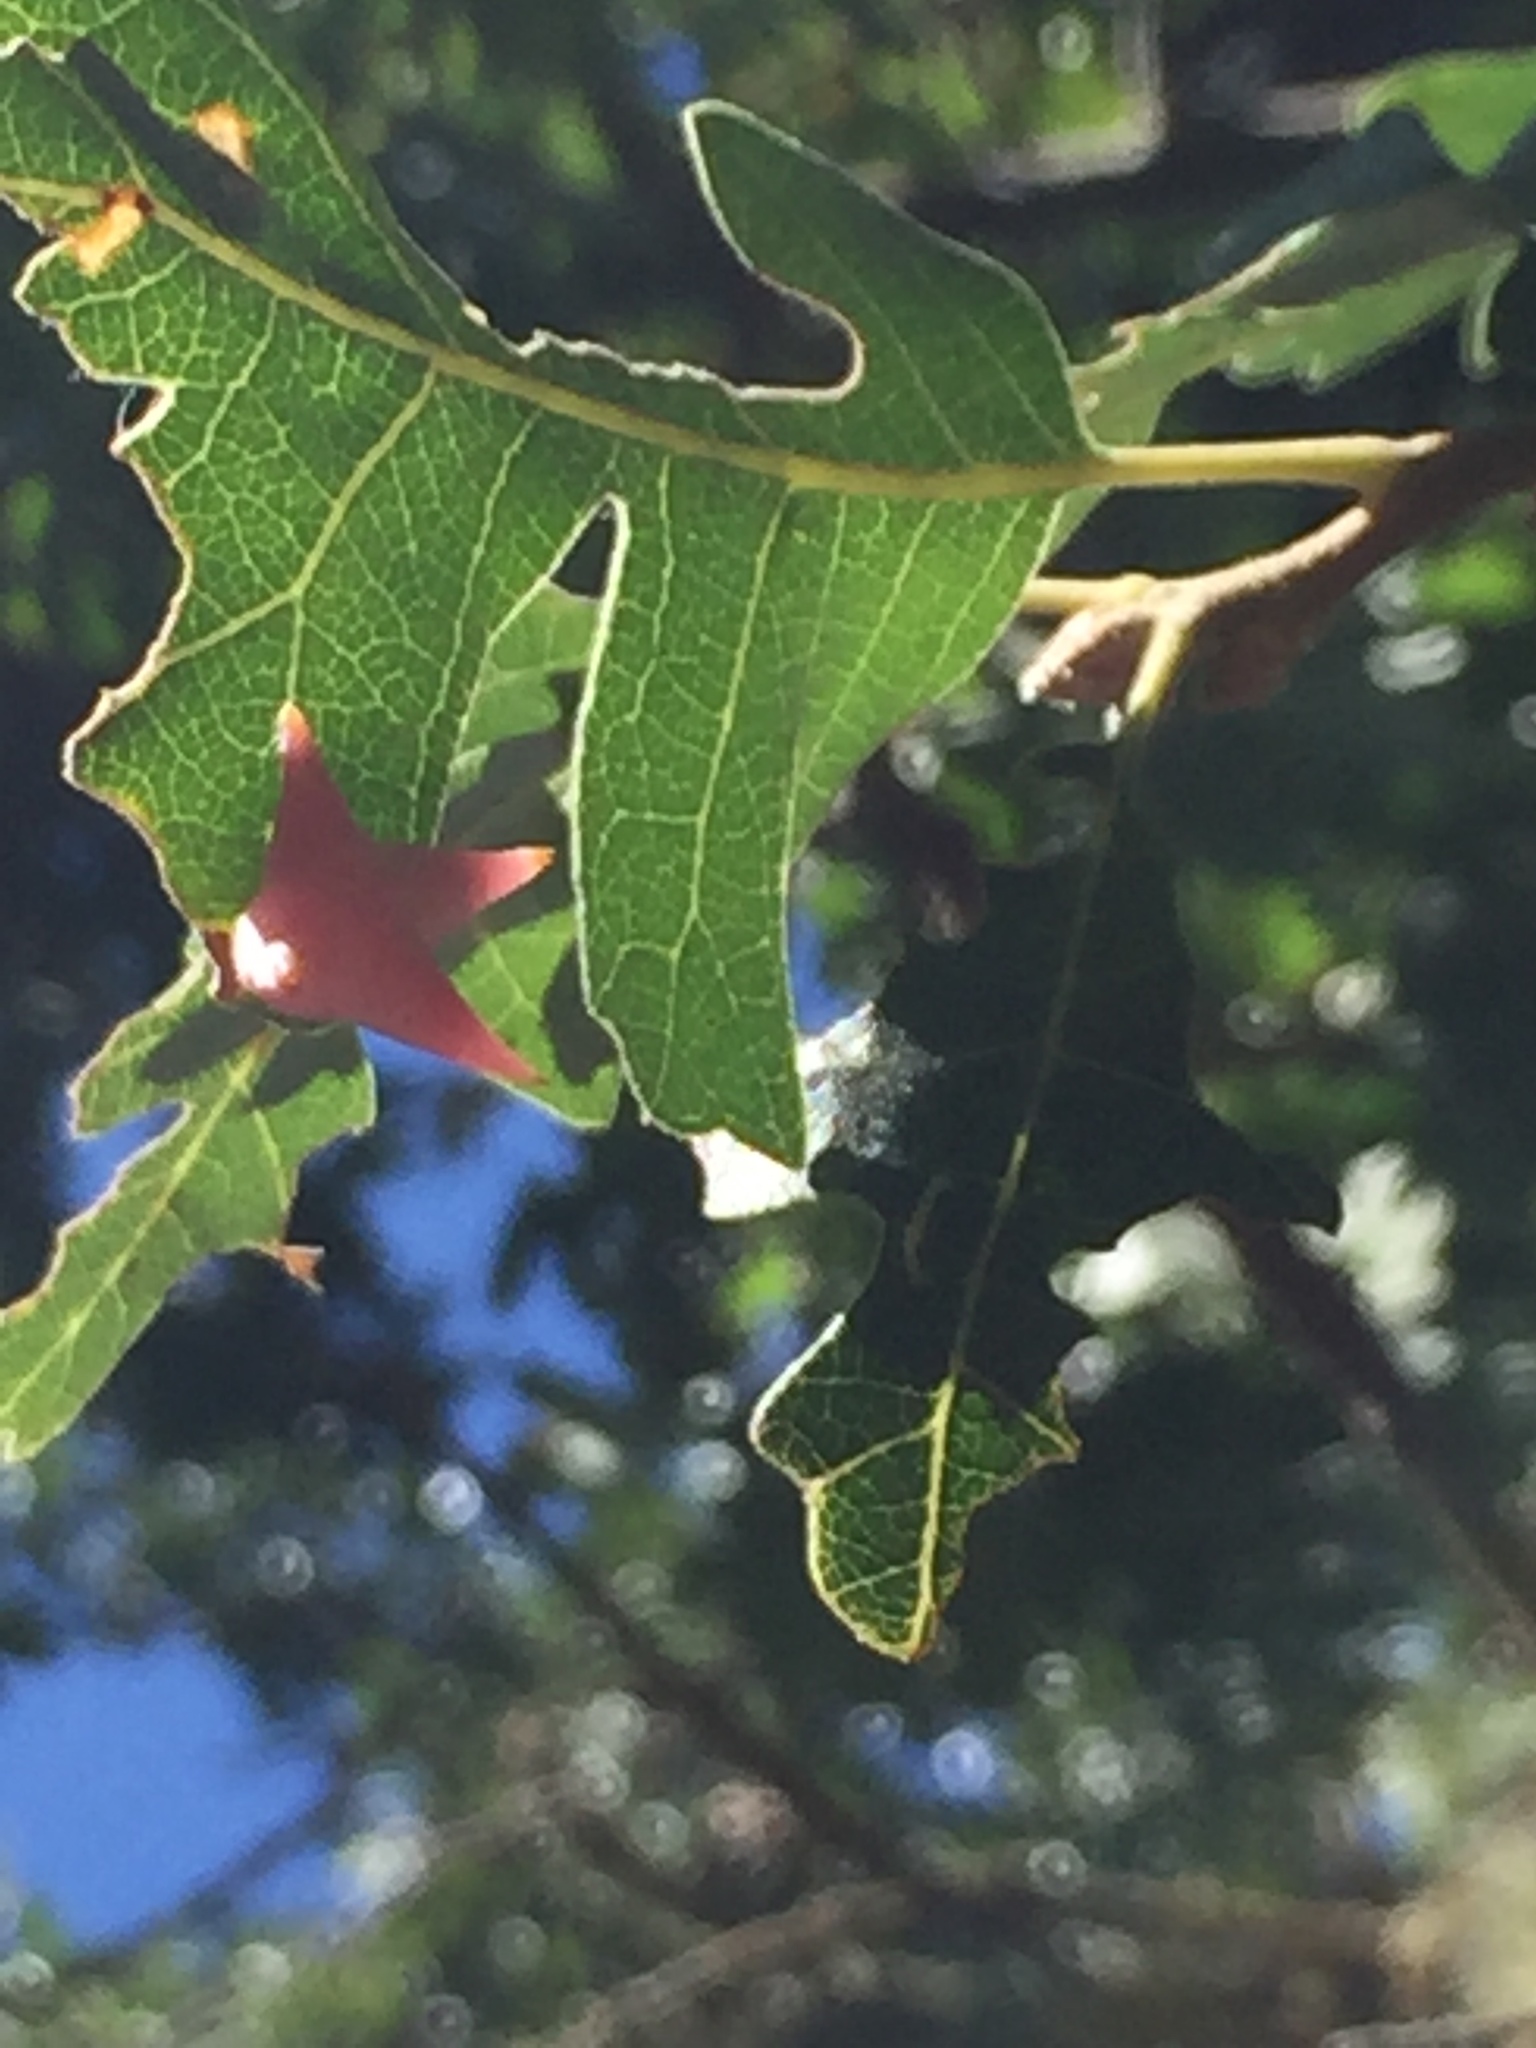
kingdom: Animalia
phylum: Arthropoda
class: Insecta
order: Hymenoptera
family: Cynipidae
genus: Cynips
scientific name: Cynips douglasi
